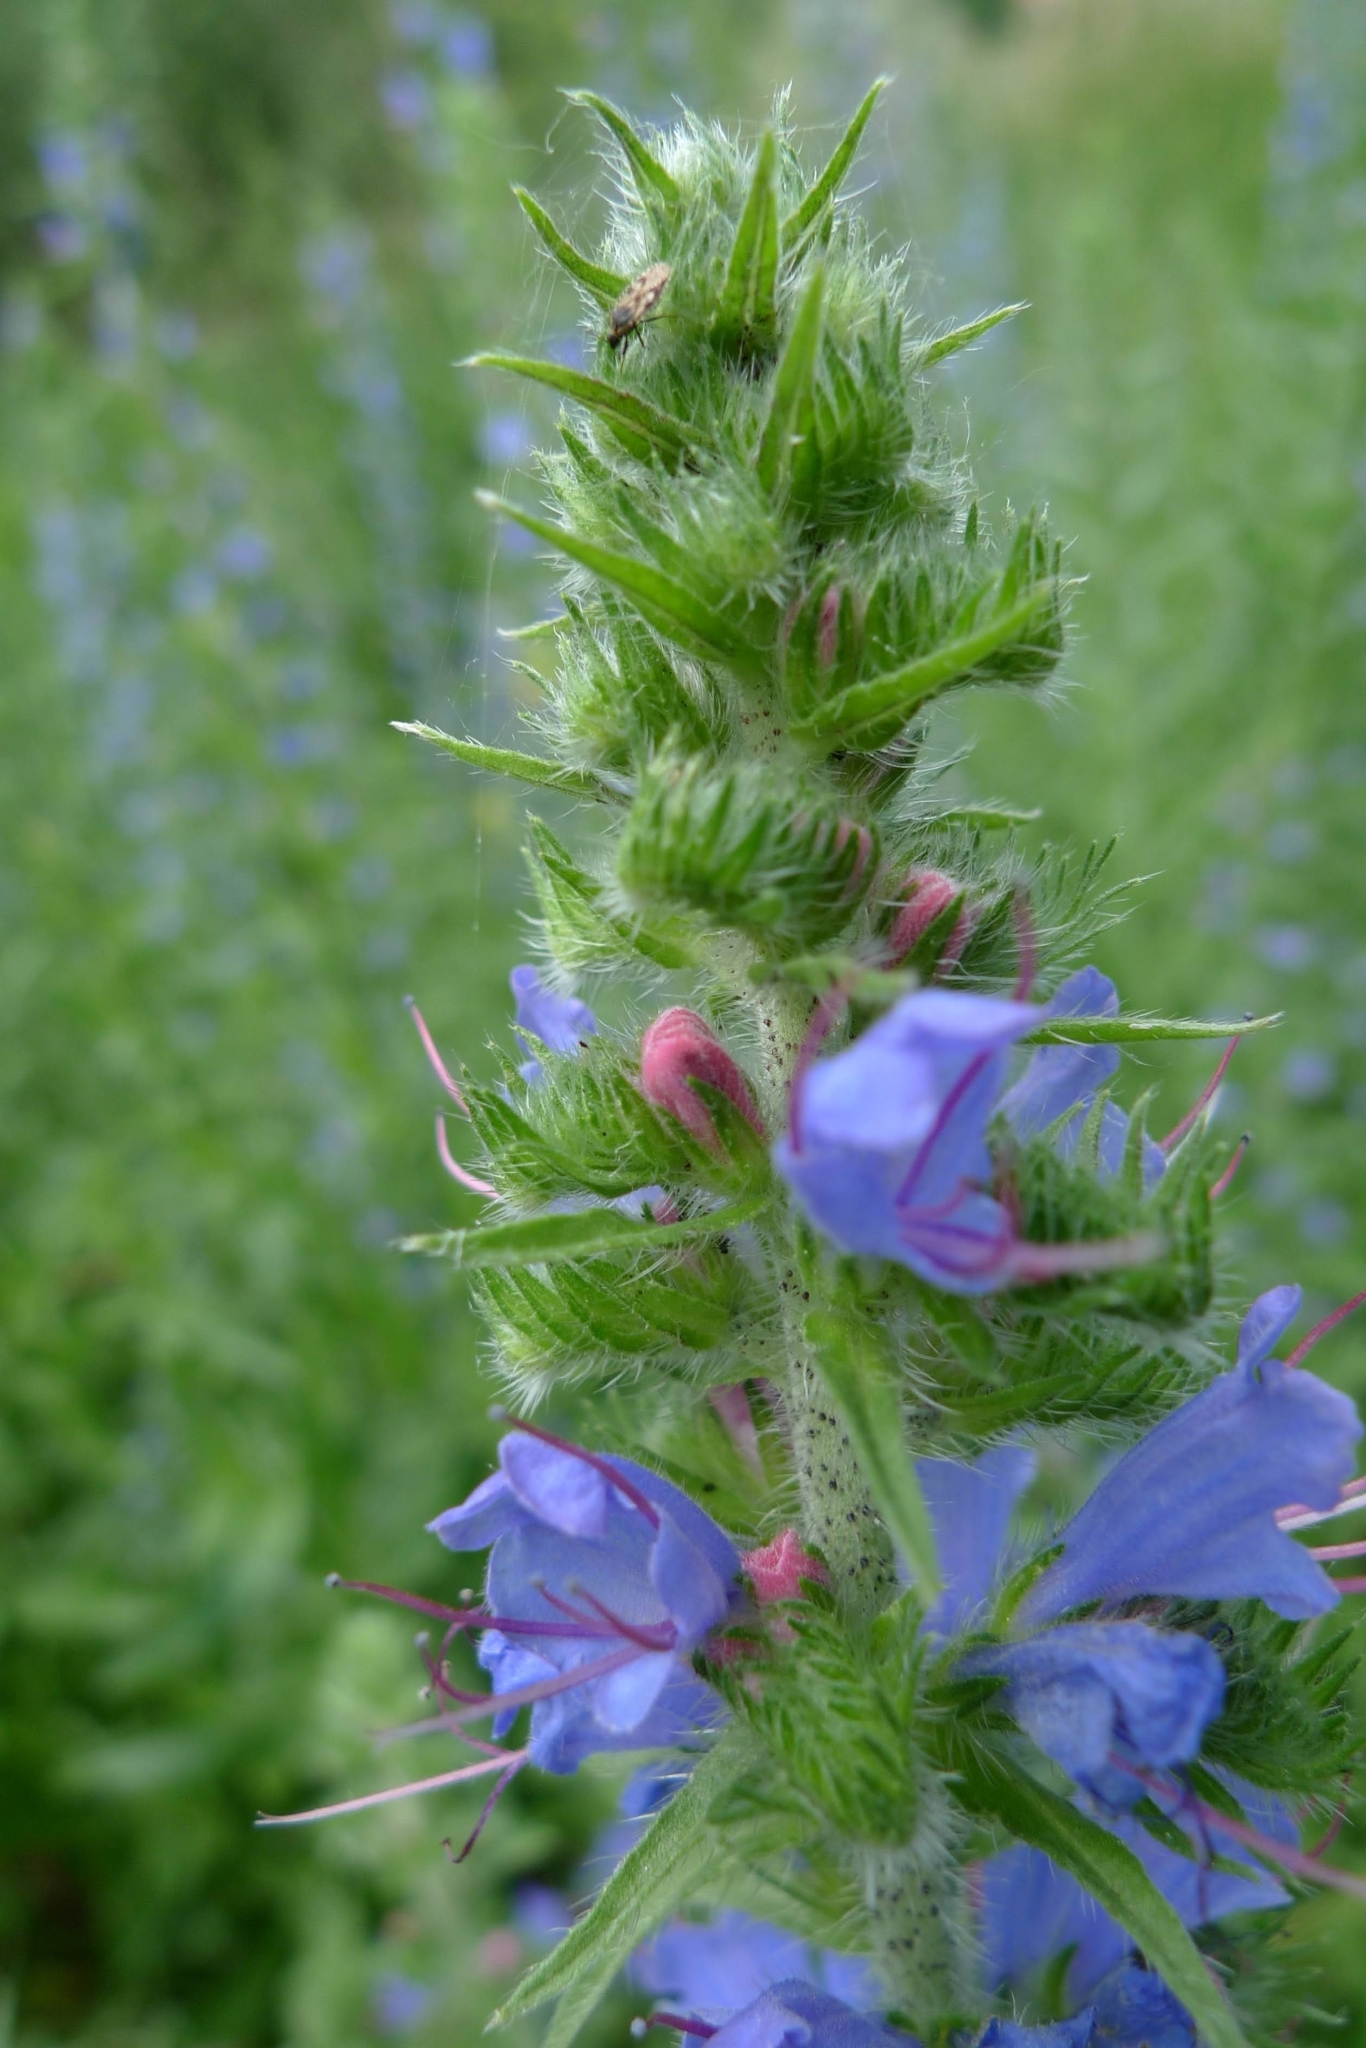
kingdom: Plantae
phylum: Tracheophyta
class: Magnoliopsida
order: Boraginales
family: Boraginaceae
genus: Echium
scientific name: Echium vulgare
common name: Common viper's bugloss
